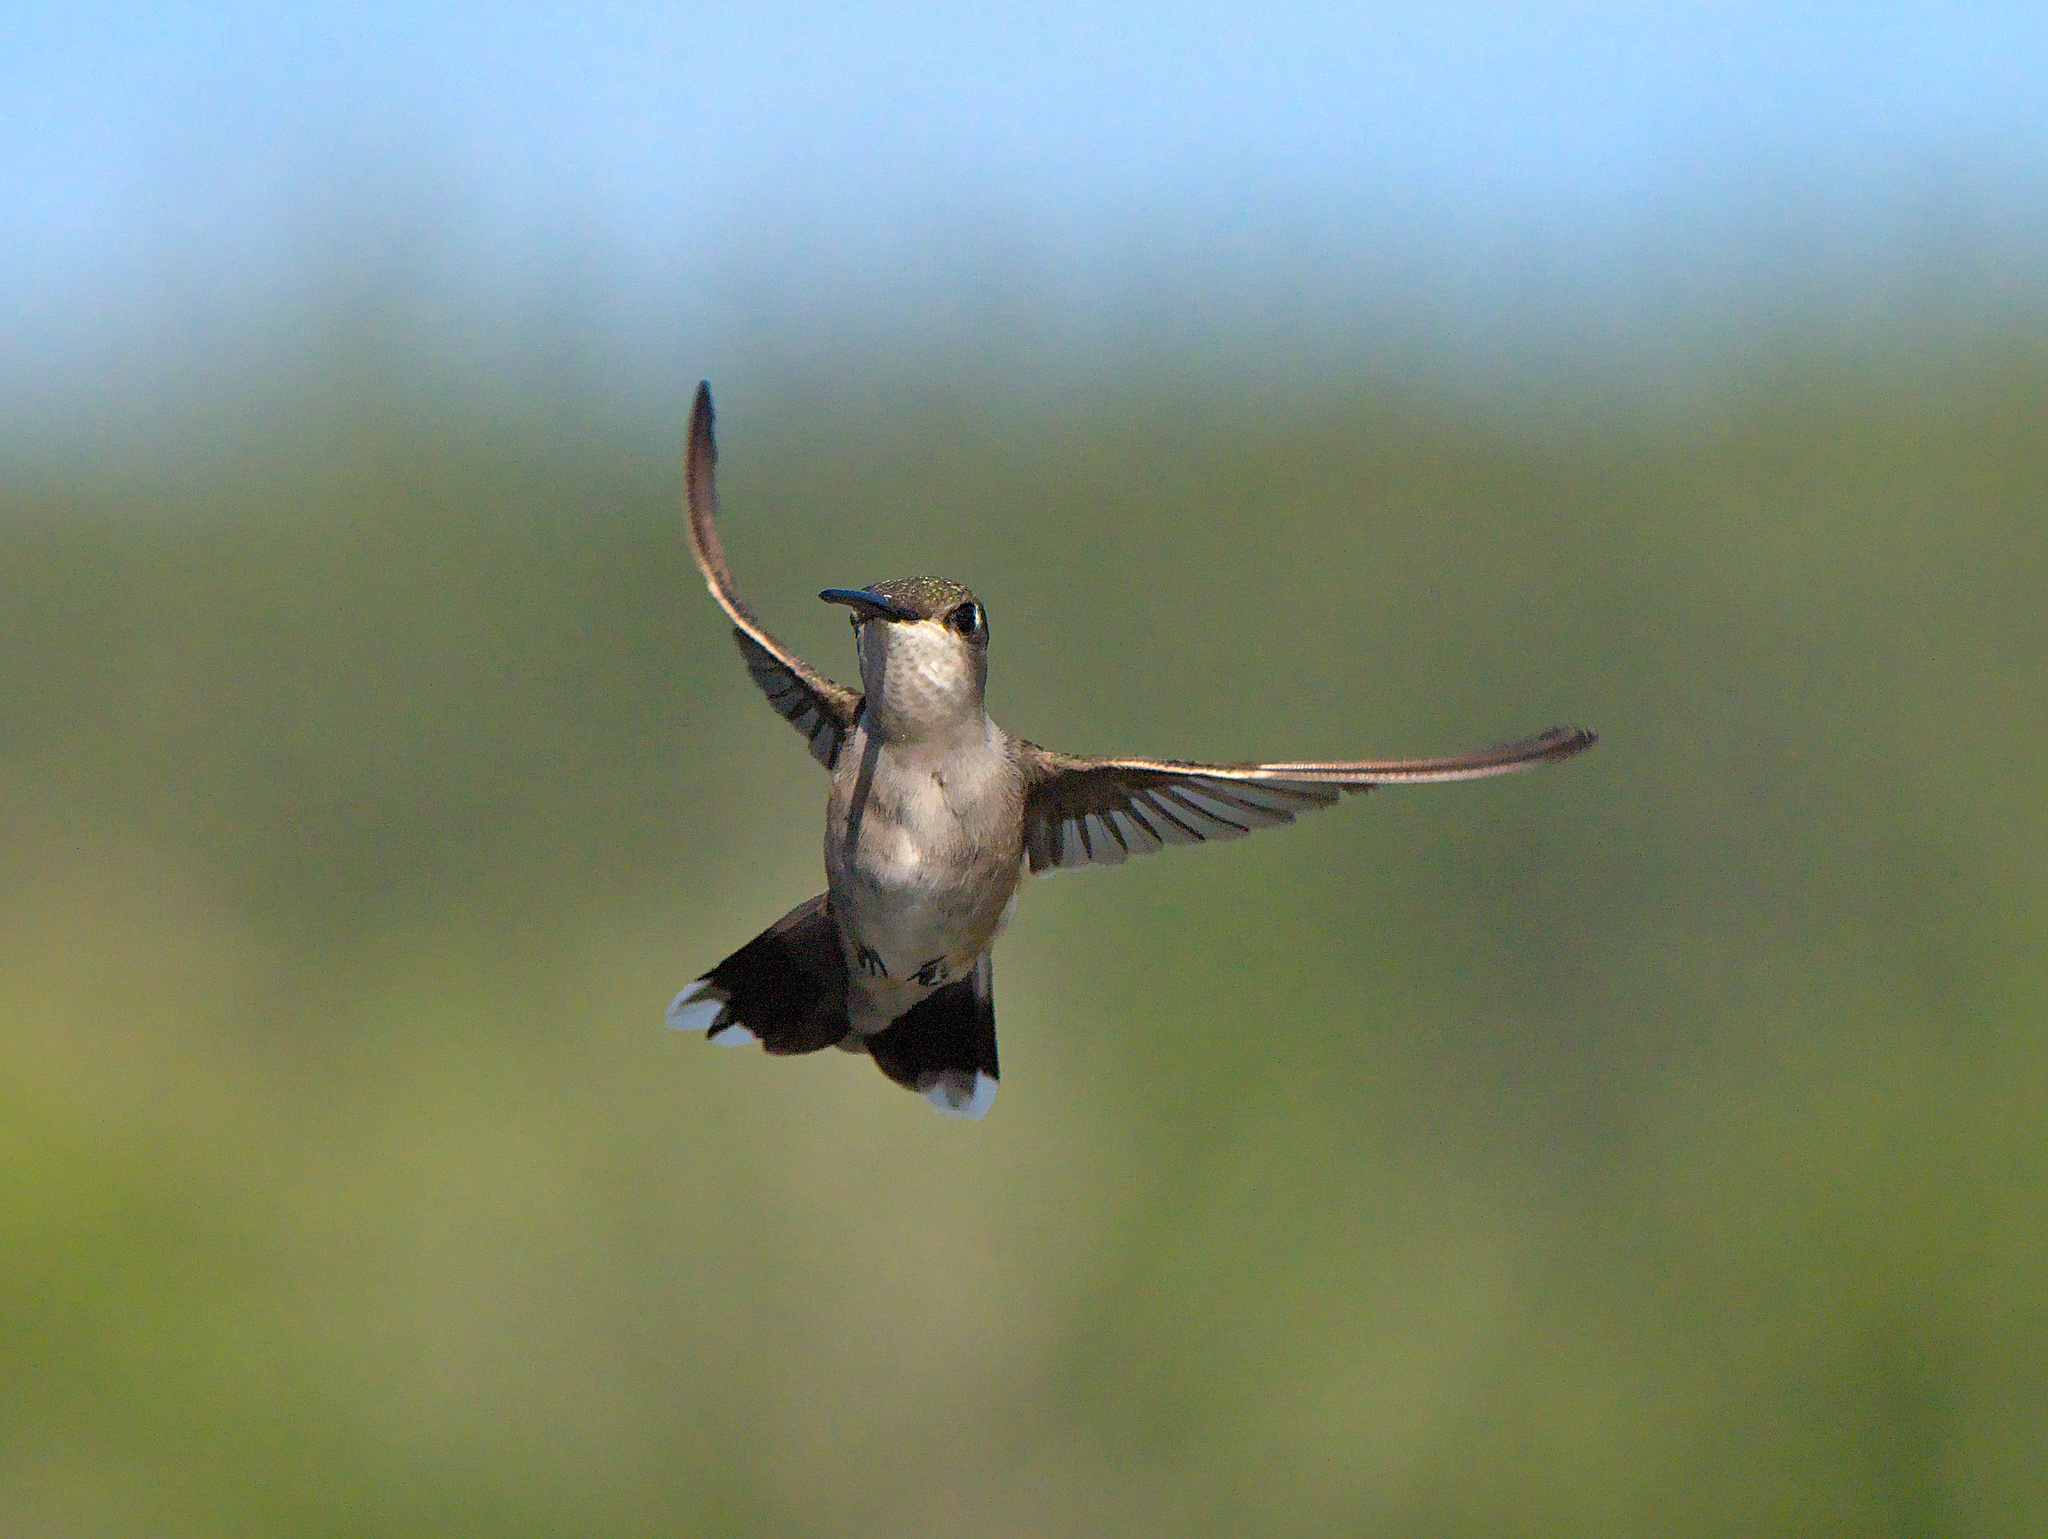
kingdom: Animalia
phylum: Chordata
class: Aves
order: Apodiformes
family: Trochilidae
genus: Archilochus
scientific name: Archilochus colubris
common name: Ruby-throated hummingbird
